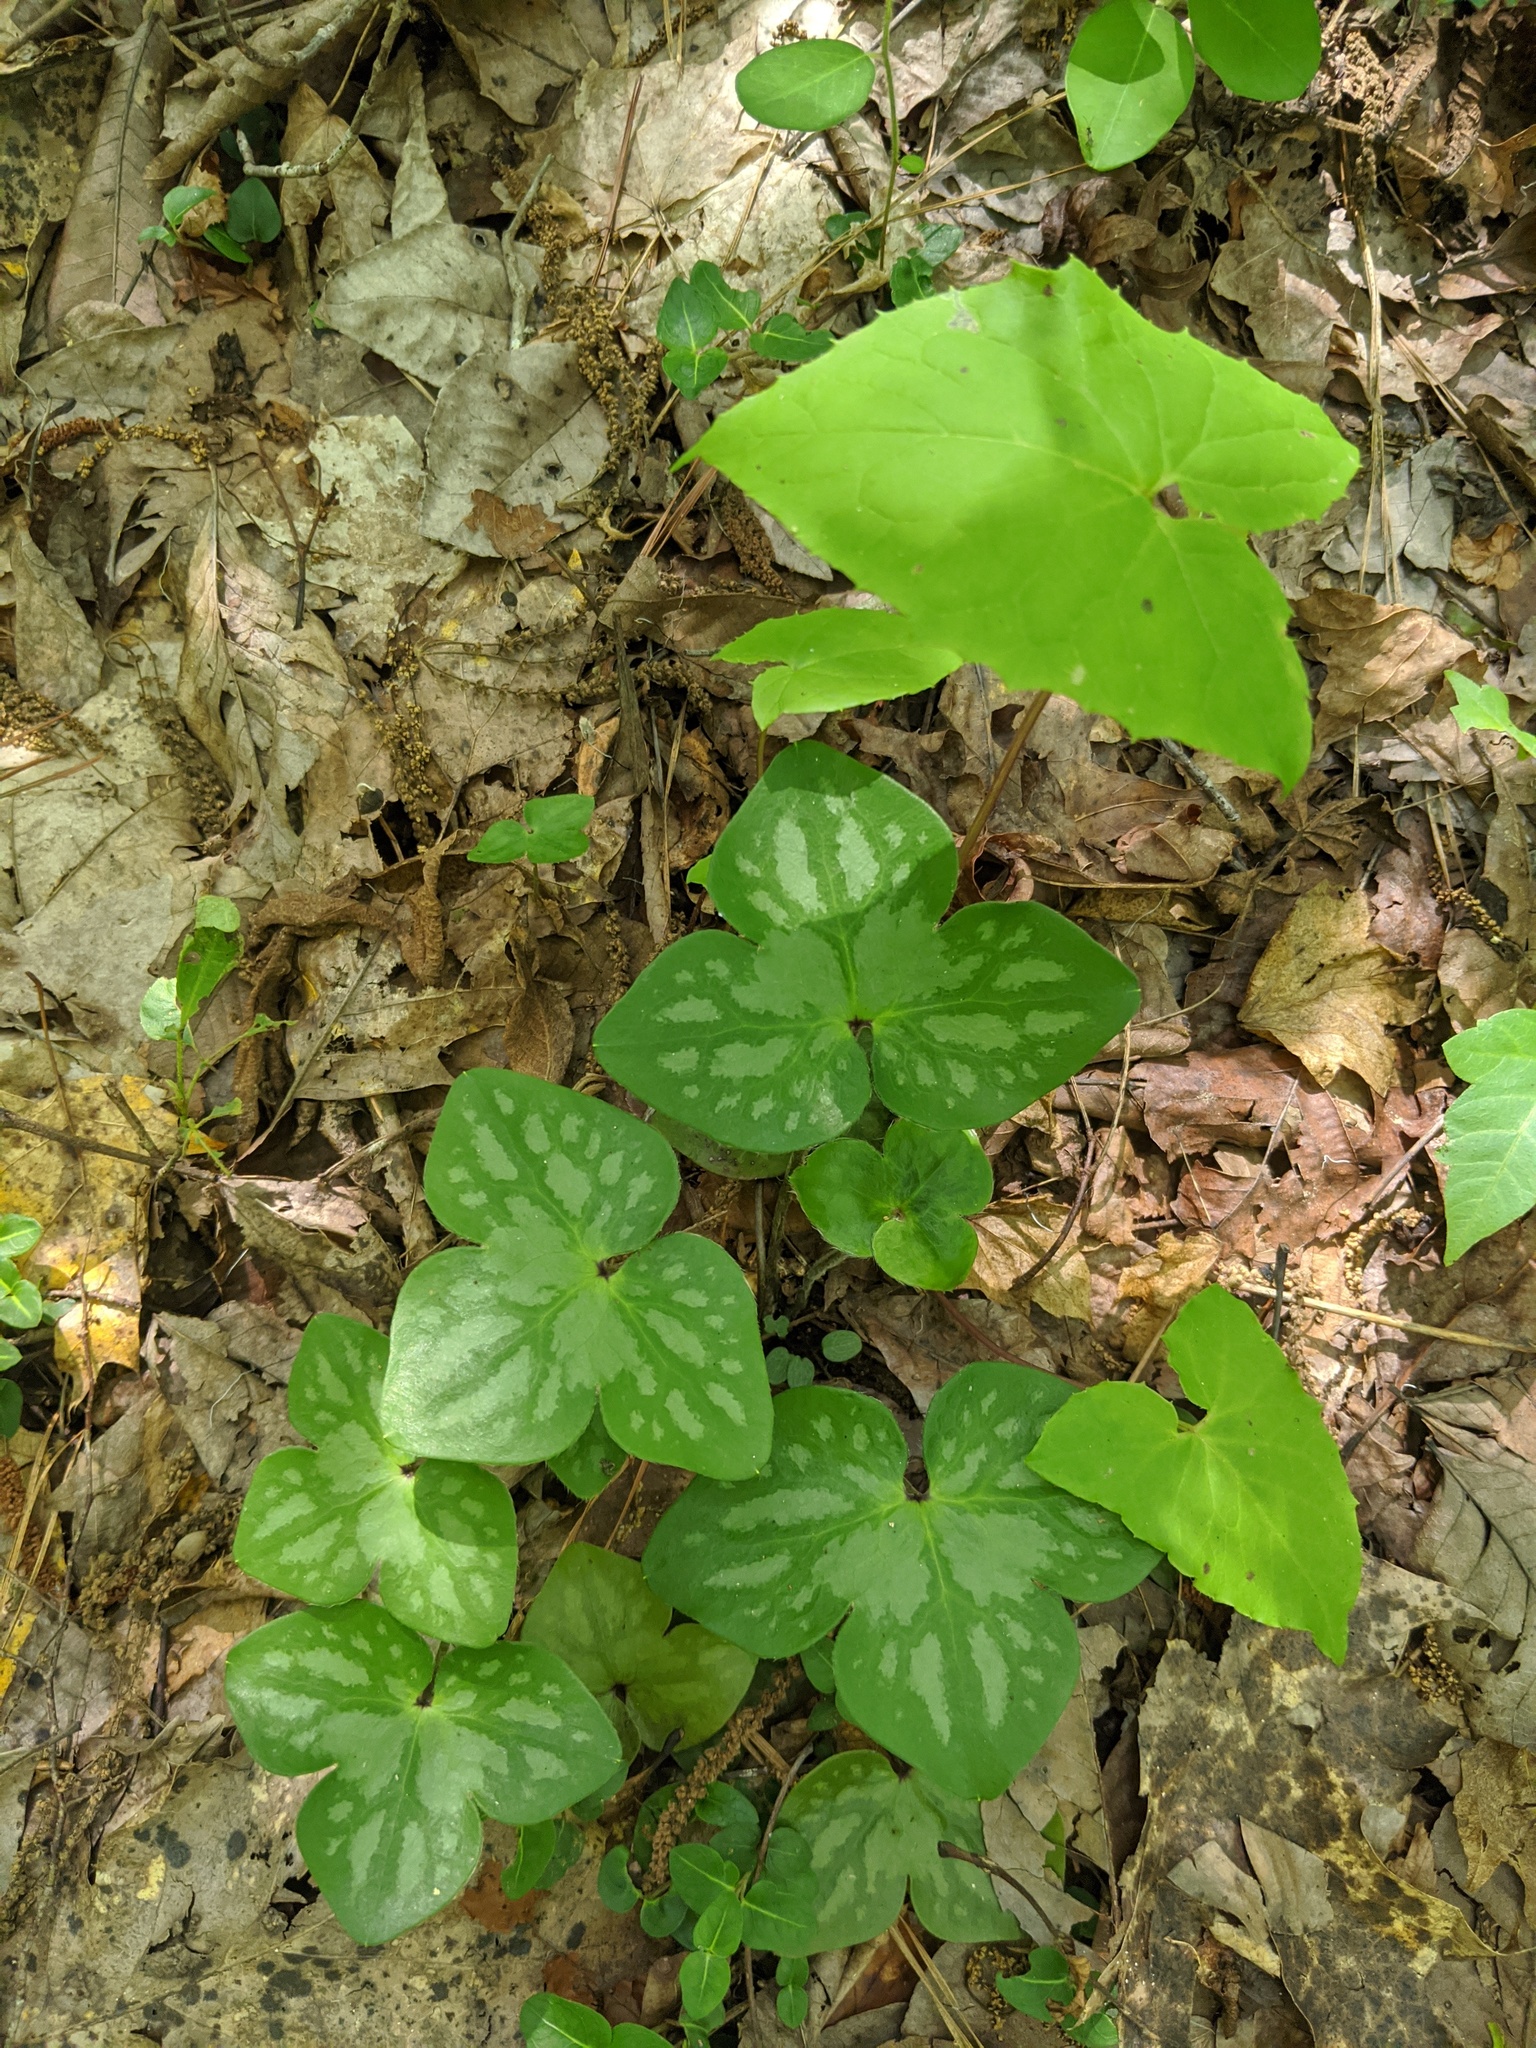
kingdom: Plantae
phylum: Tracheophyta
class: Magnoliopsida
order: Ranunculales
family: Ranunculaceae
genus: Hepatica
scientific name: Hepatica acutiloba
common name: Sharp-lobed hepatica
